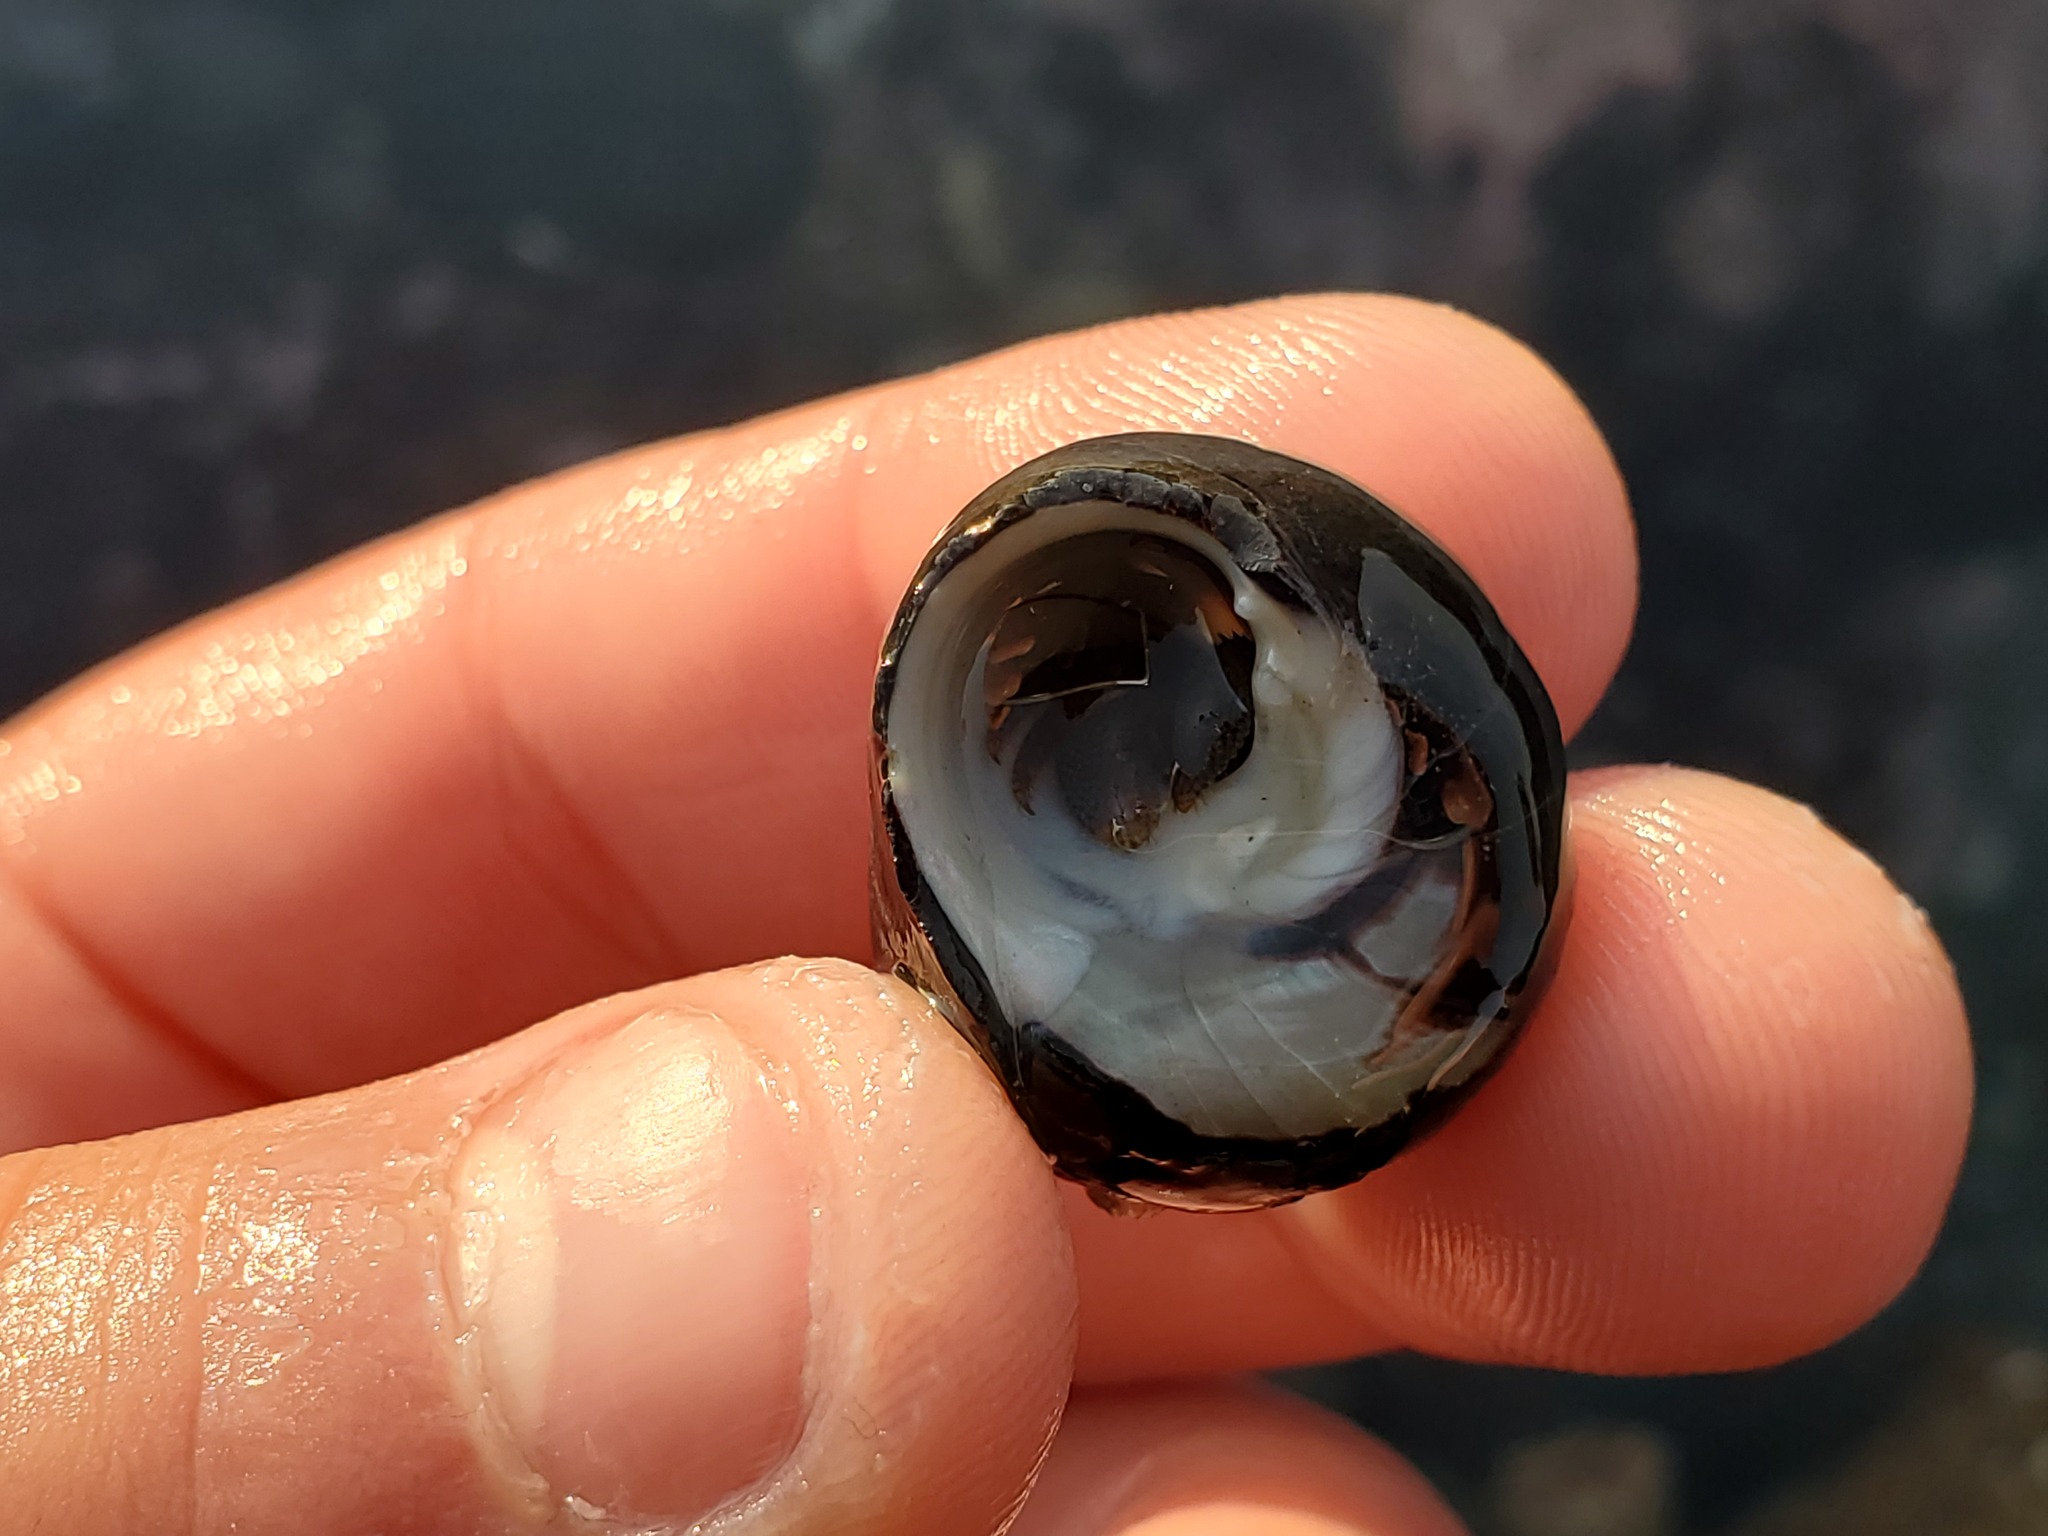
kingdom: Animalia
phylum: Arthropoda
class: Malacostraca
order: Decapoda
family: Paguridae
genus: Pagurus
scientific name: Pagurus granosimanus
